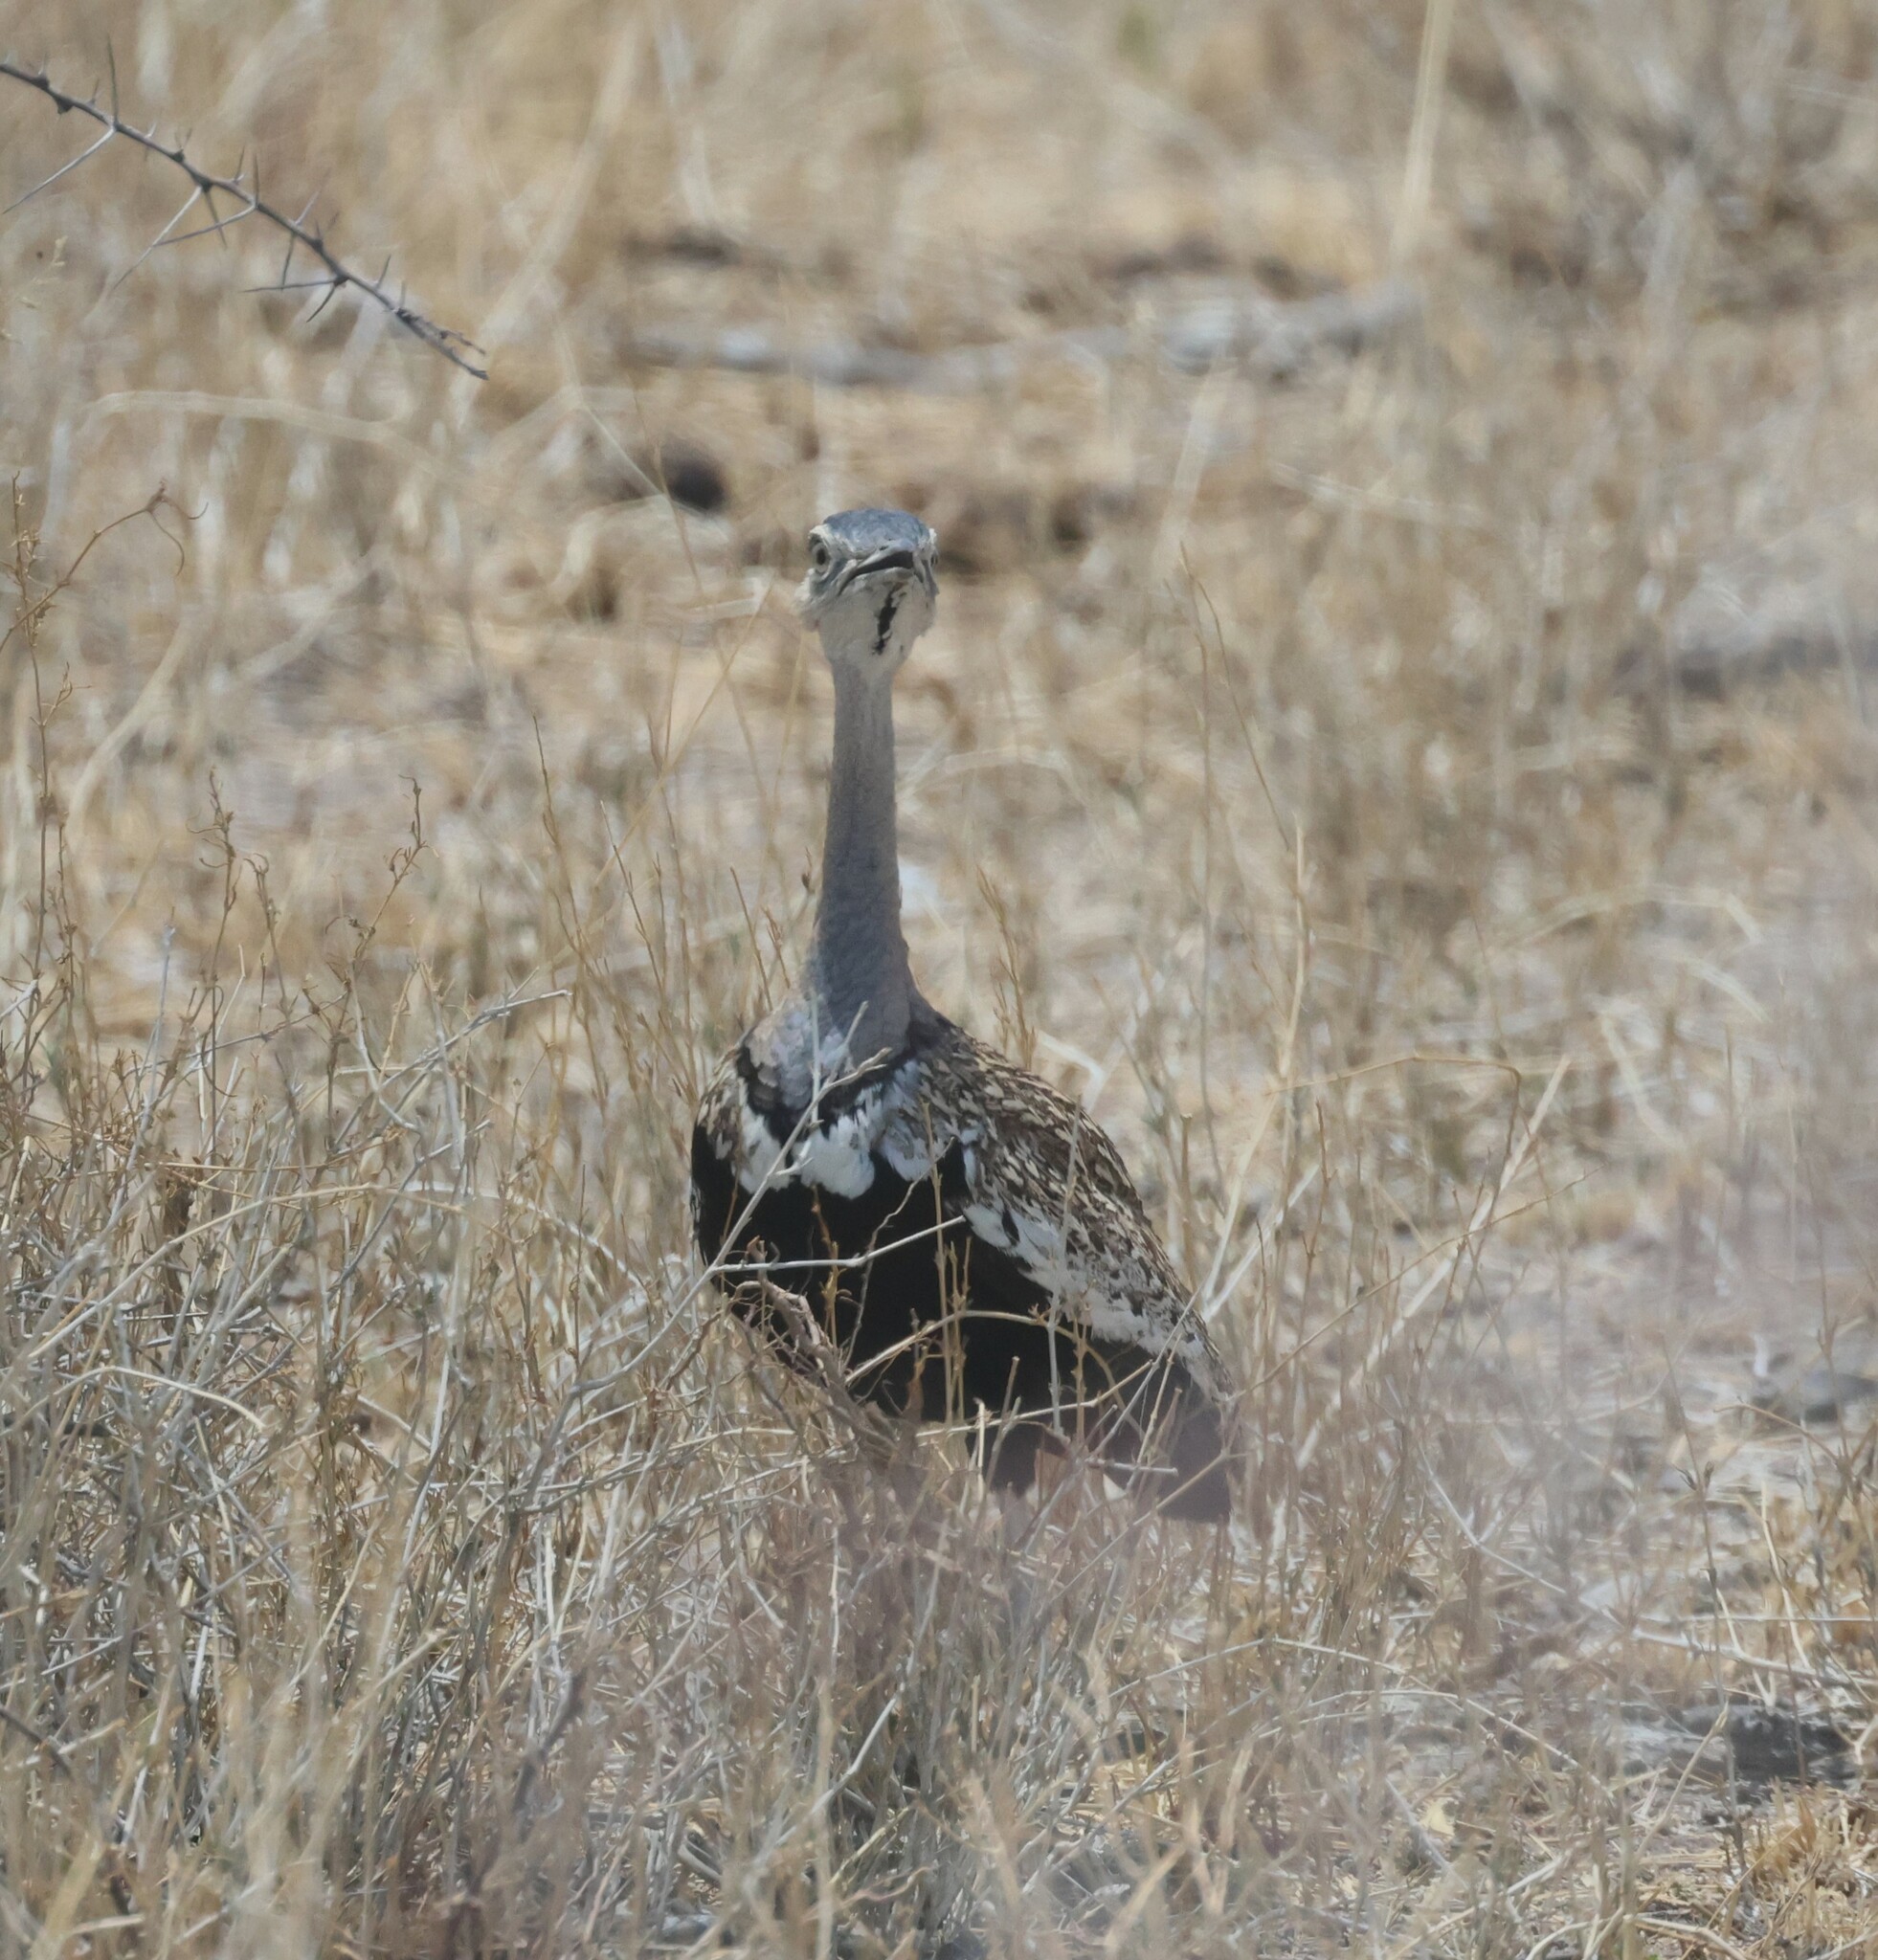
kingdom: Animalia
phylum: Chordata
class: Aves
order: Otidiformes
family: Otididae
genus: Lophotis
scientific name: Lophotis ruficrista
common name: Red-crested korhaan
